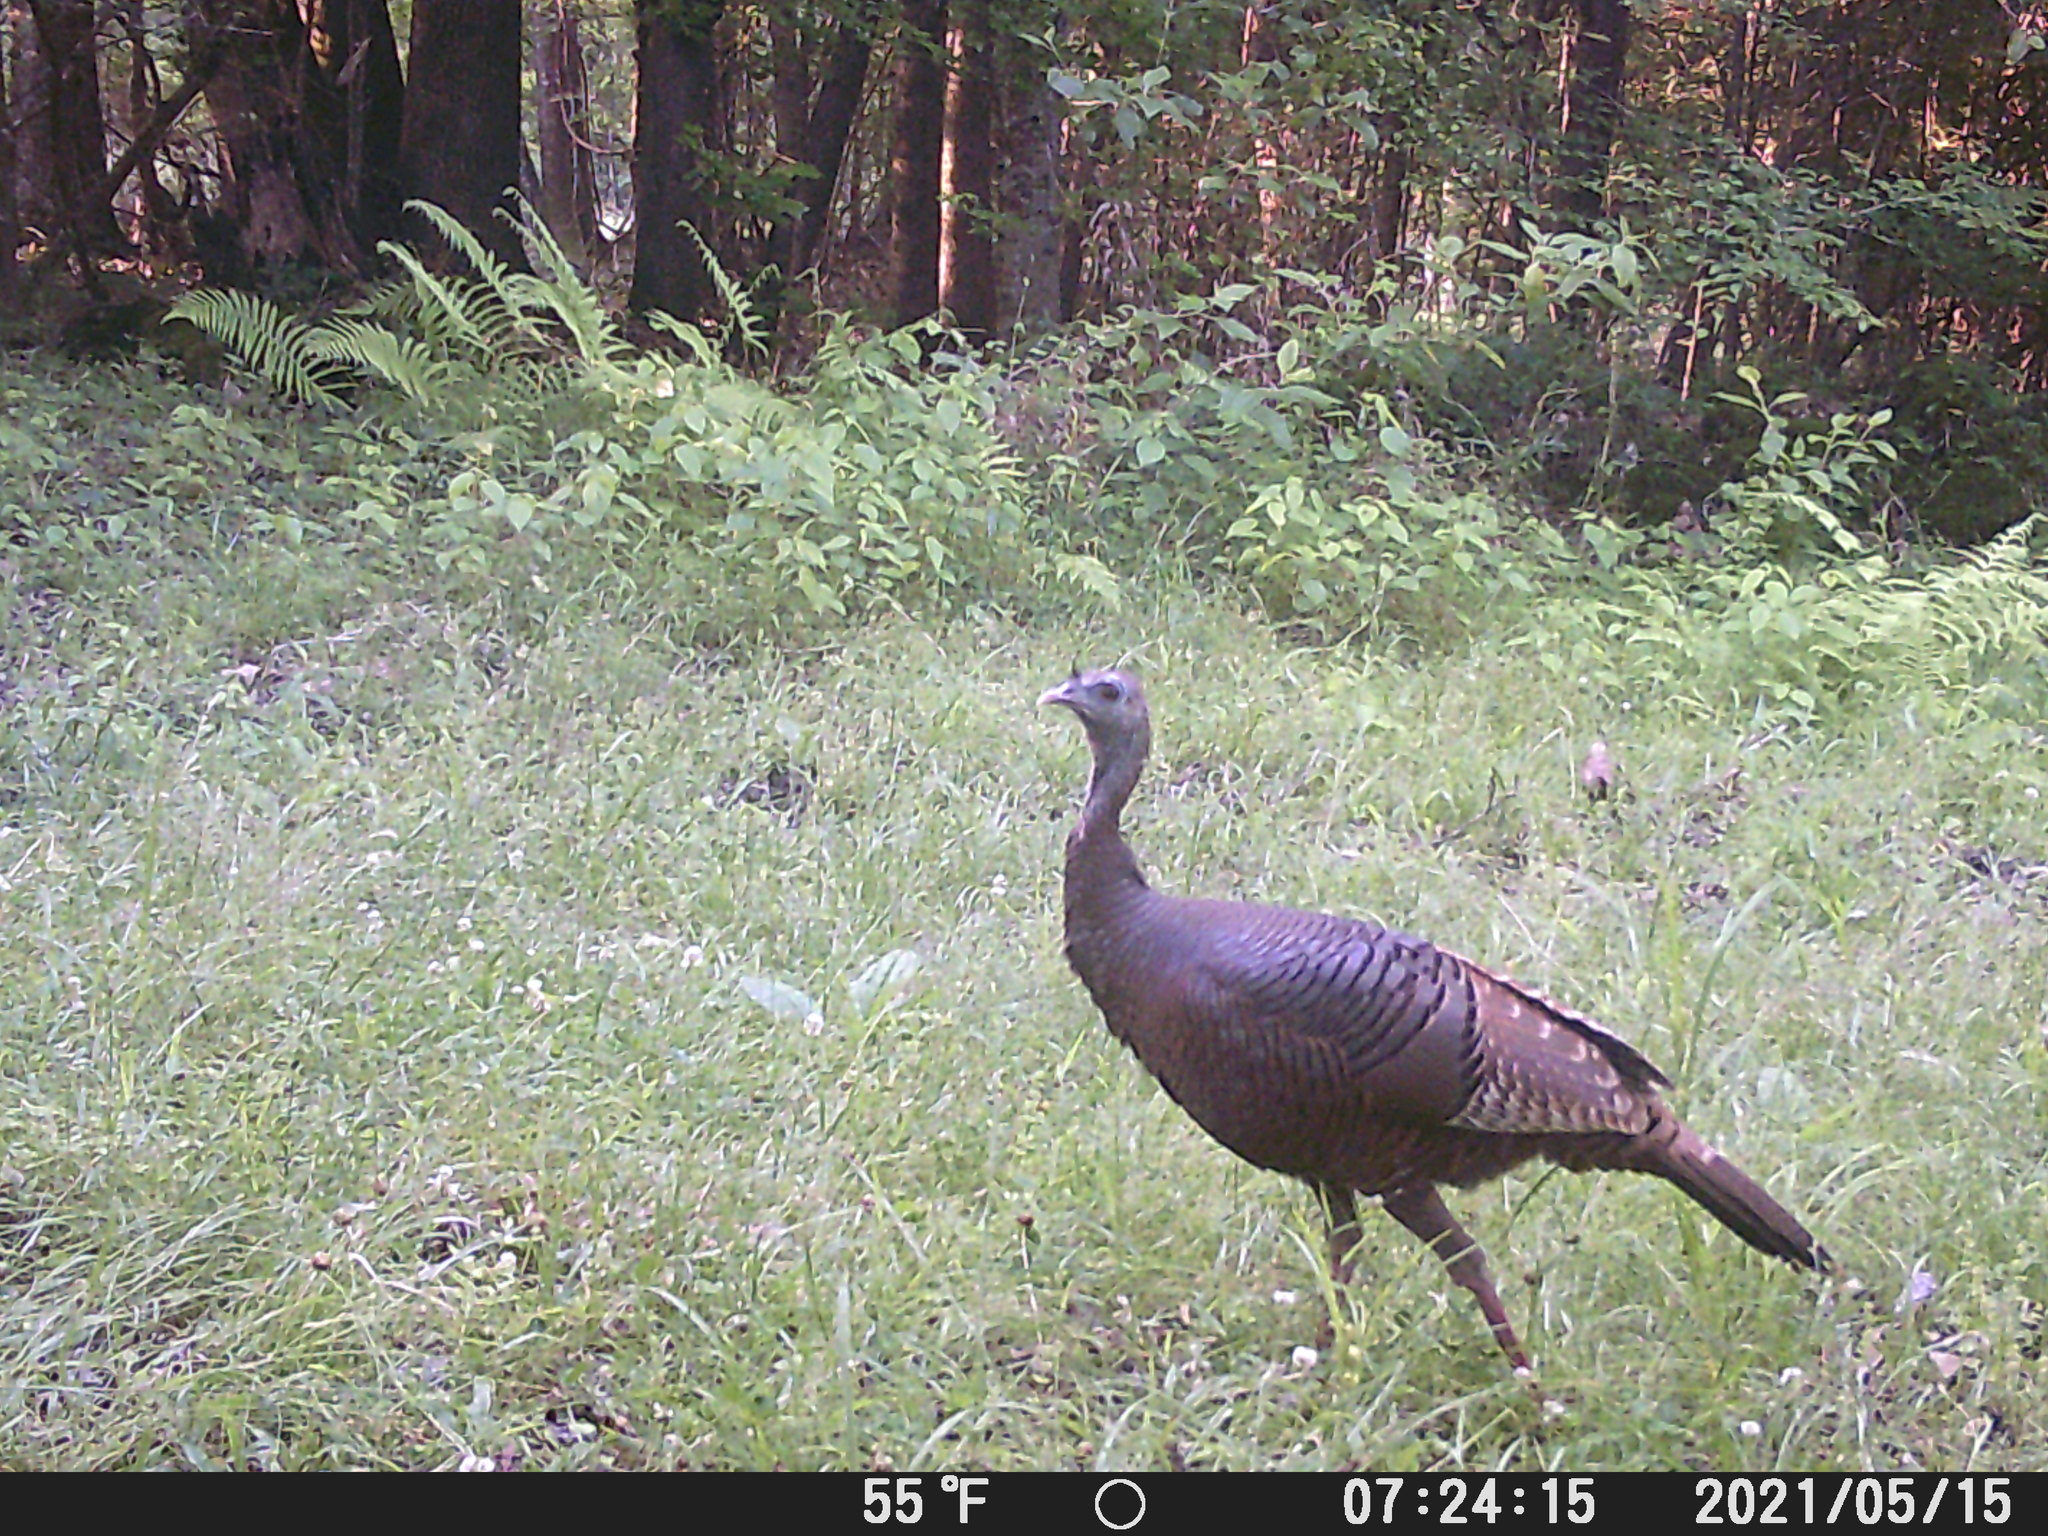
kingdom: Animalia
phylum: Chordata
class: Aves
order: Galliformes
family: Phasianidae
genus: Meleagris
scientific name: Meleagris gallopavo
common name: Wild turkey
